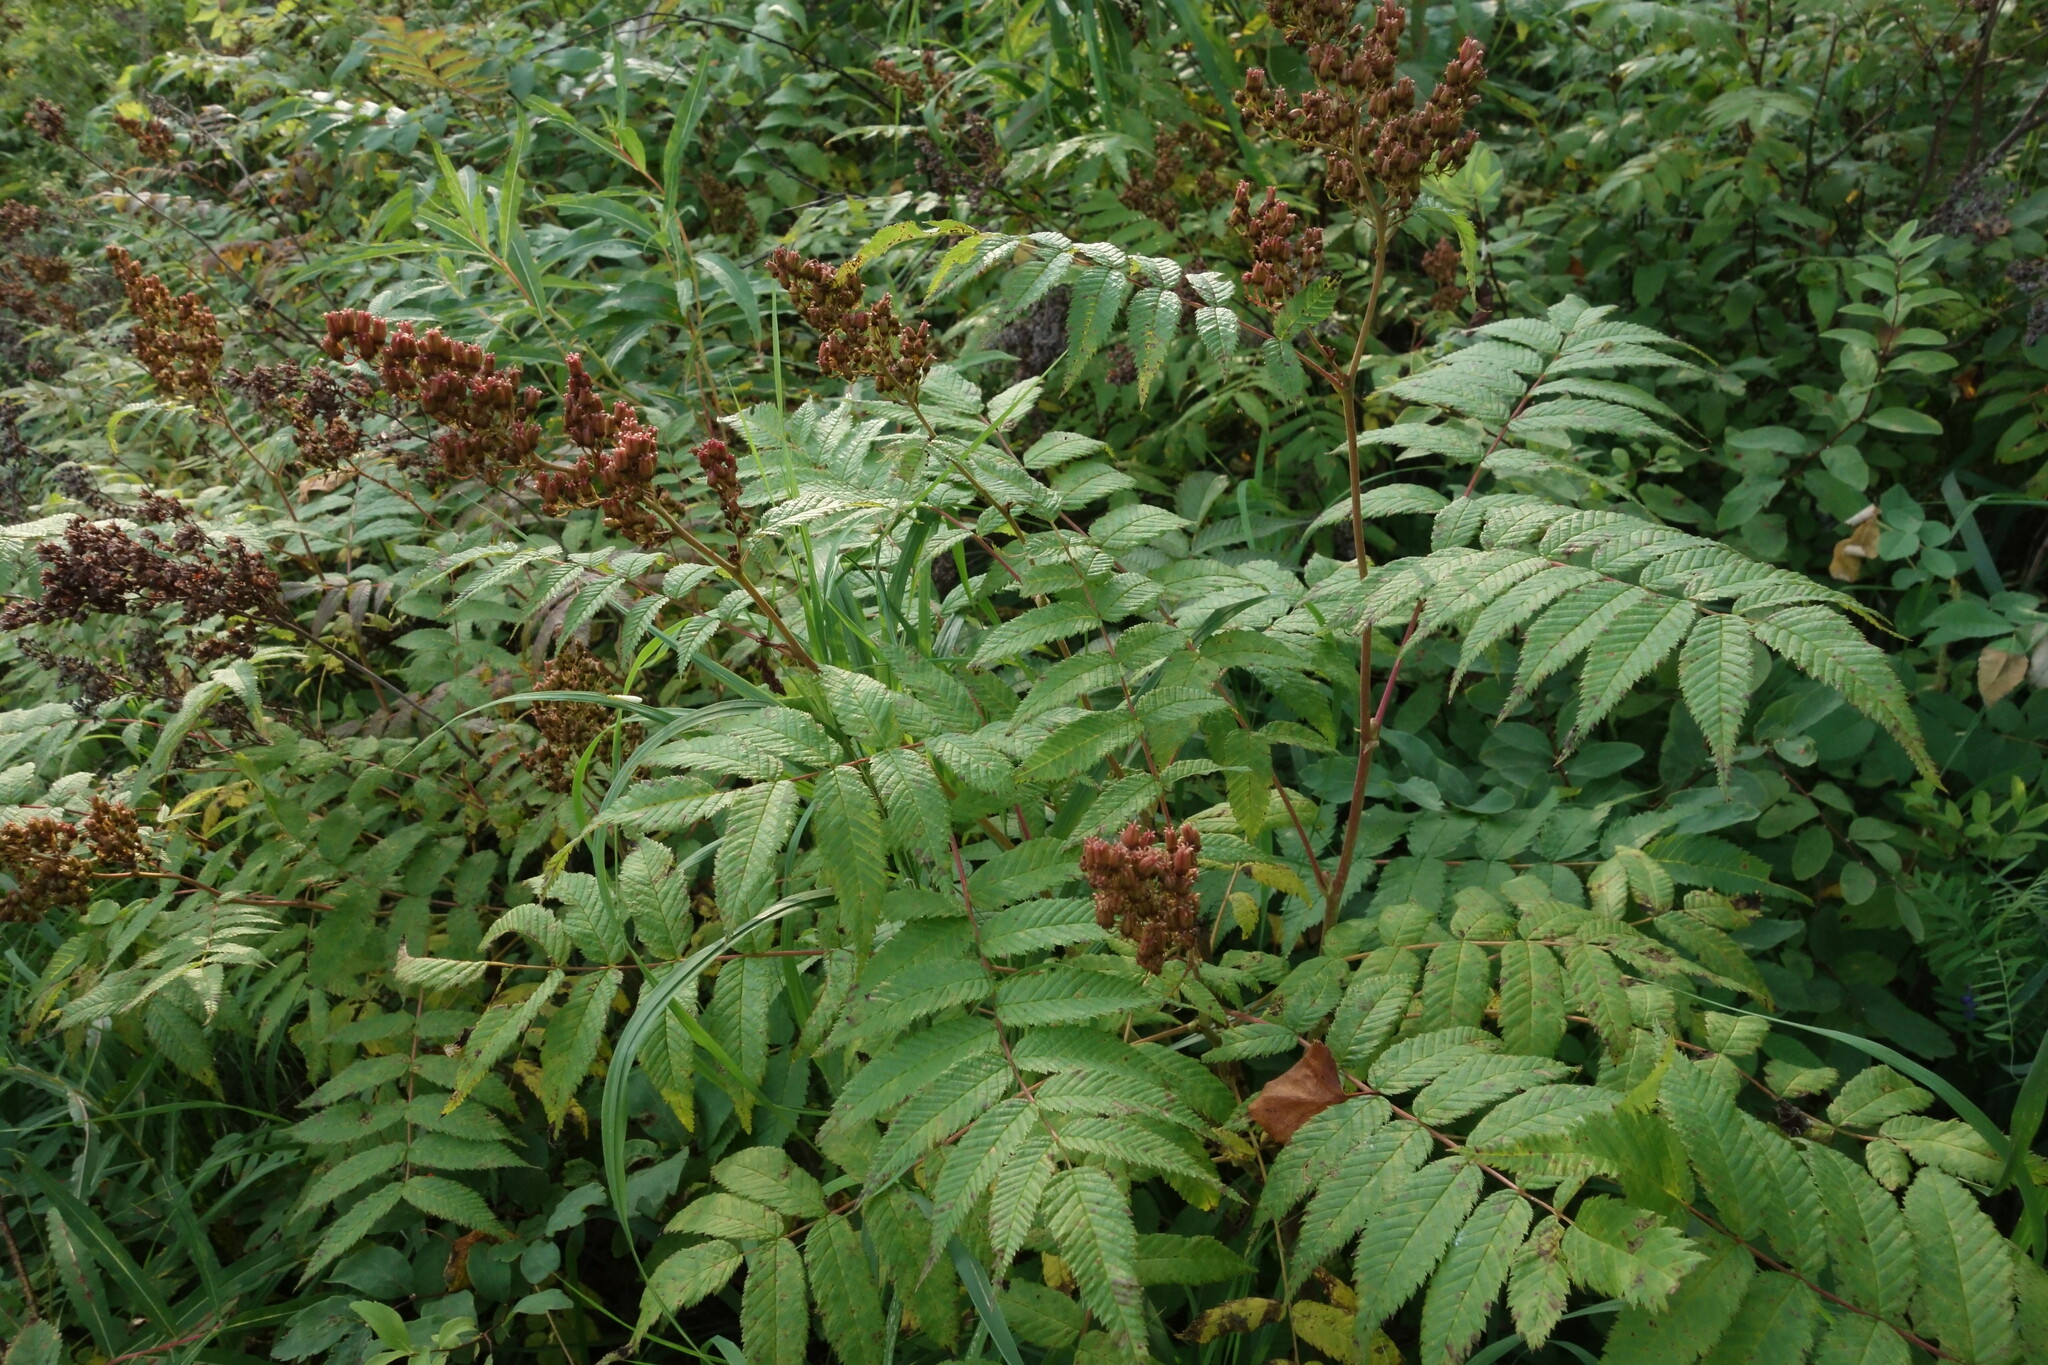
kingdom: Plantae
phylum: Tracheophyta
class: Magnoliopsida
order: Rosales
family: Rosaceae
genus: Sorbaria
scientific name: Sorbaria sorbifolia
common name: False spiraea
